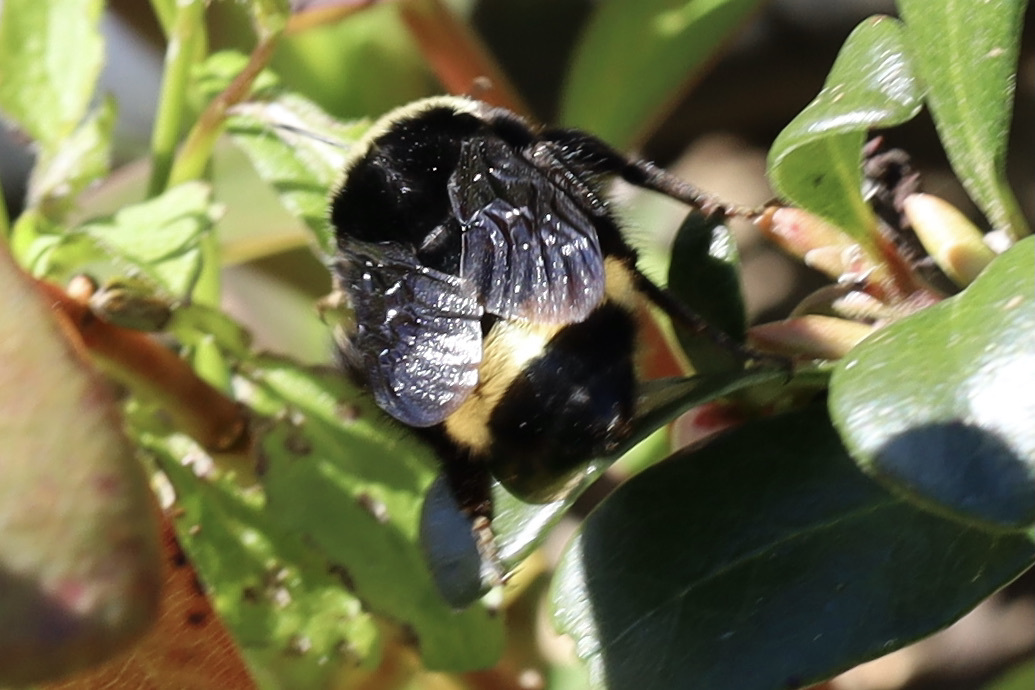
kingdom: Animalia
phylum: Arthropoda
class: Insecta
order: Hymenoptera
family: Apidae
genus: Bombus
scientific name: Bombus vosnesenskii
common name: Vosnesensky bumble bee
